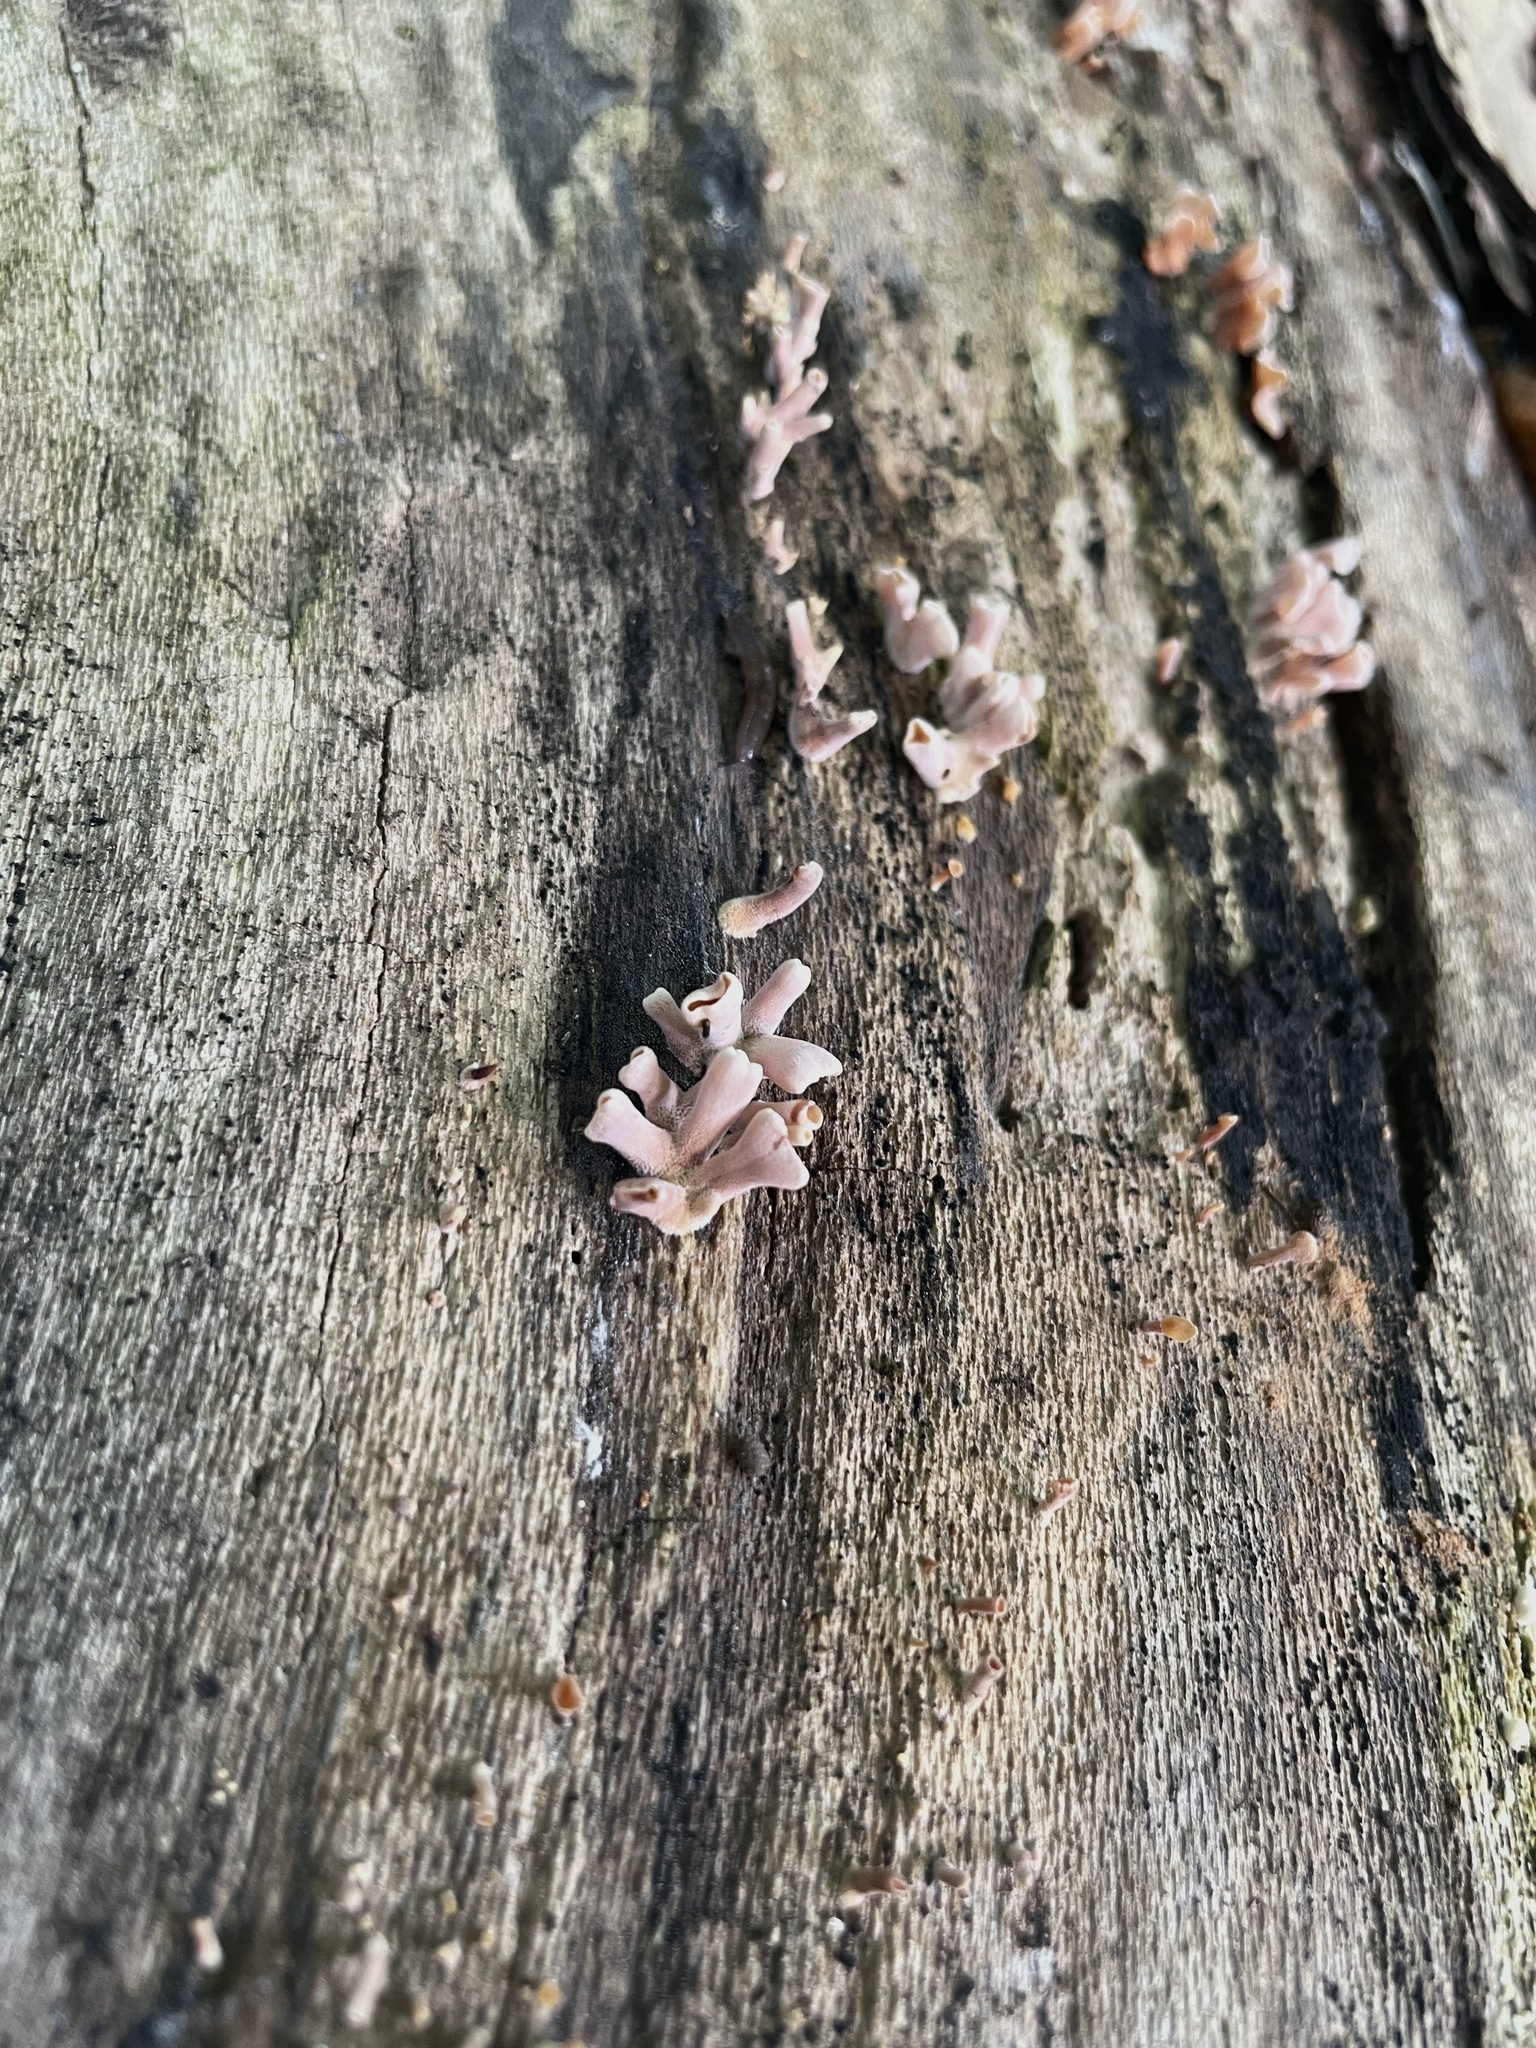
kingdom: Fungi
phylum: Basidiomycota
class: Dacrymycetes
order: Dacrymycetales
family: Dacrymycetaceae
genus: Dacryopinax
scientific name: Dacryopinax elegans
